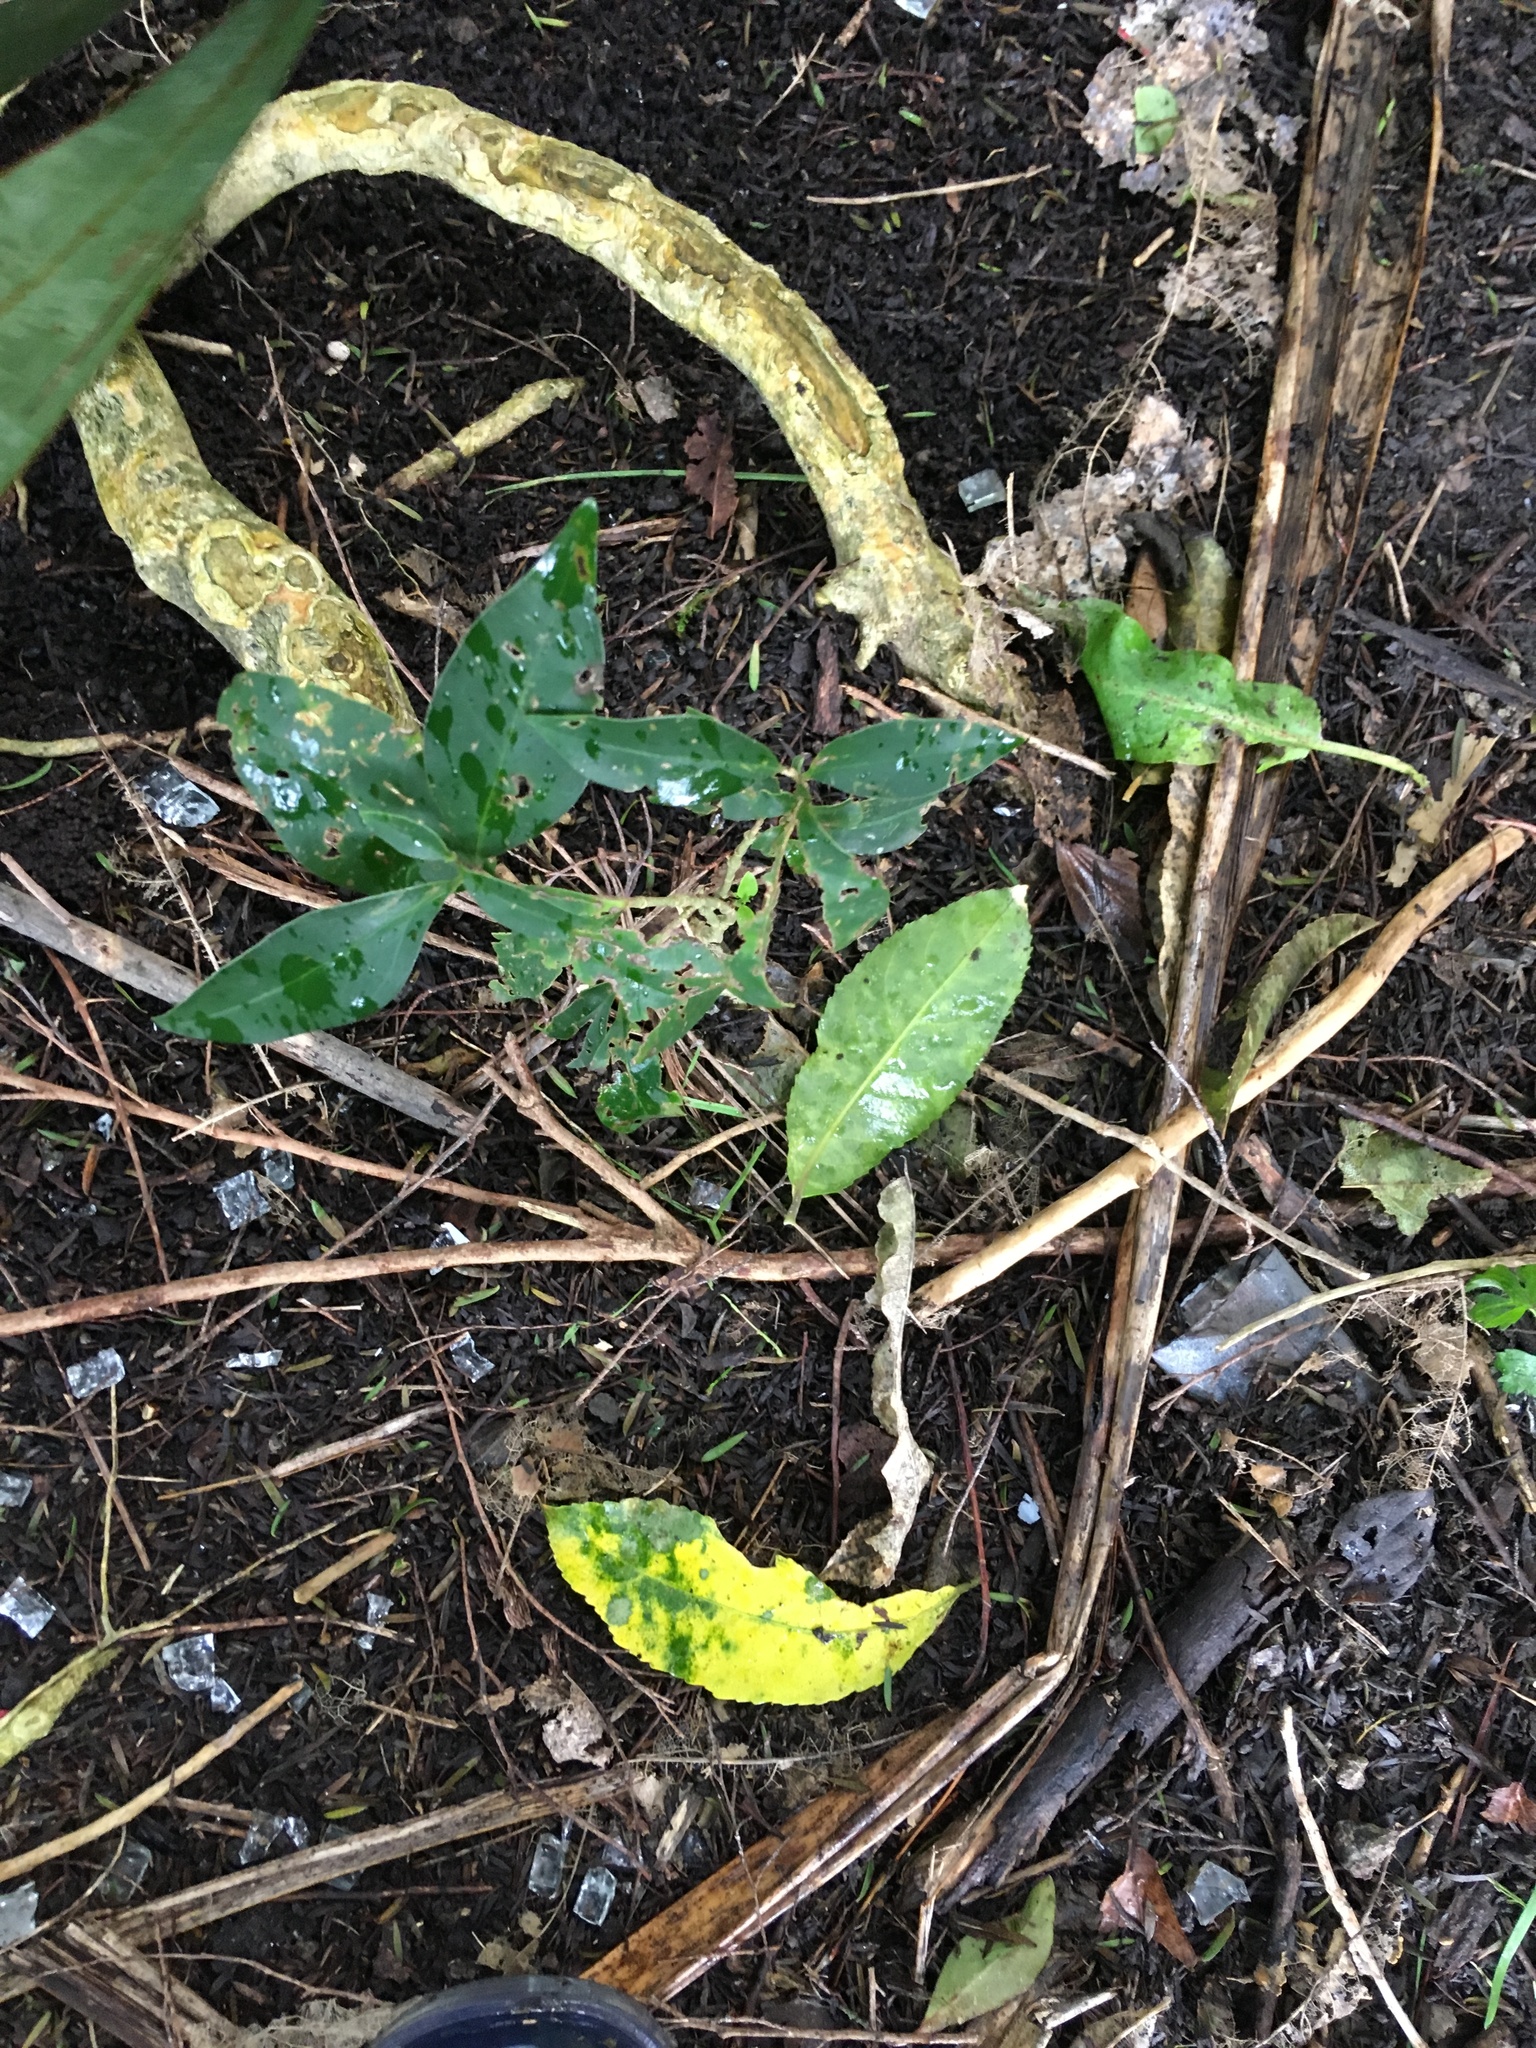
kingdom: Plantae
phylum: Tracheophyta
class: Magnoliopsida
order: Lamiales
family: Oleaceae
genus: Ligustrum
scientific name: Ligustrum lucidum
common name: Glossy privet
